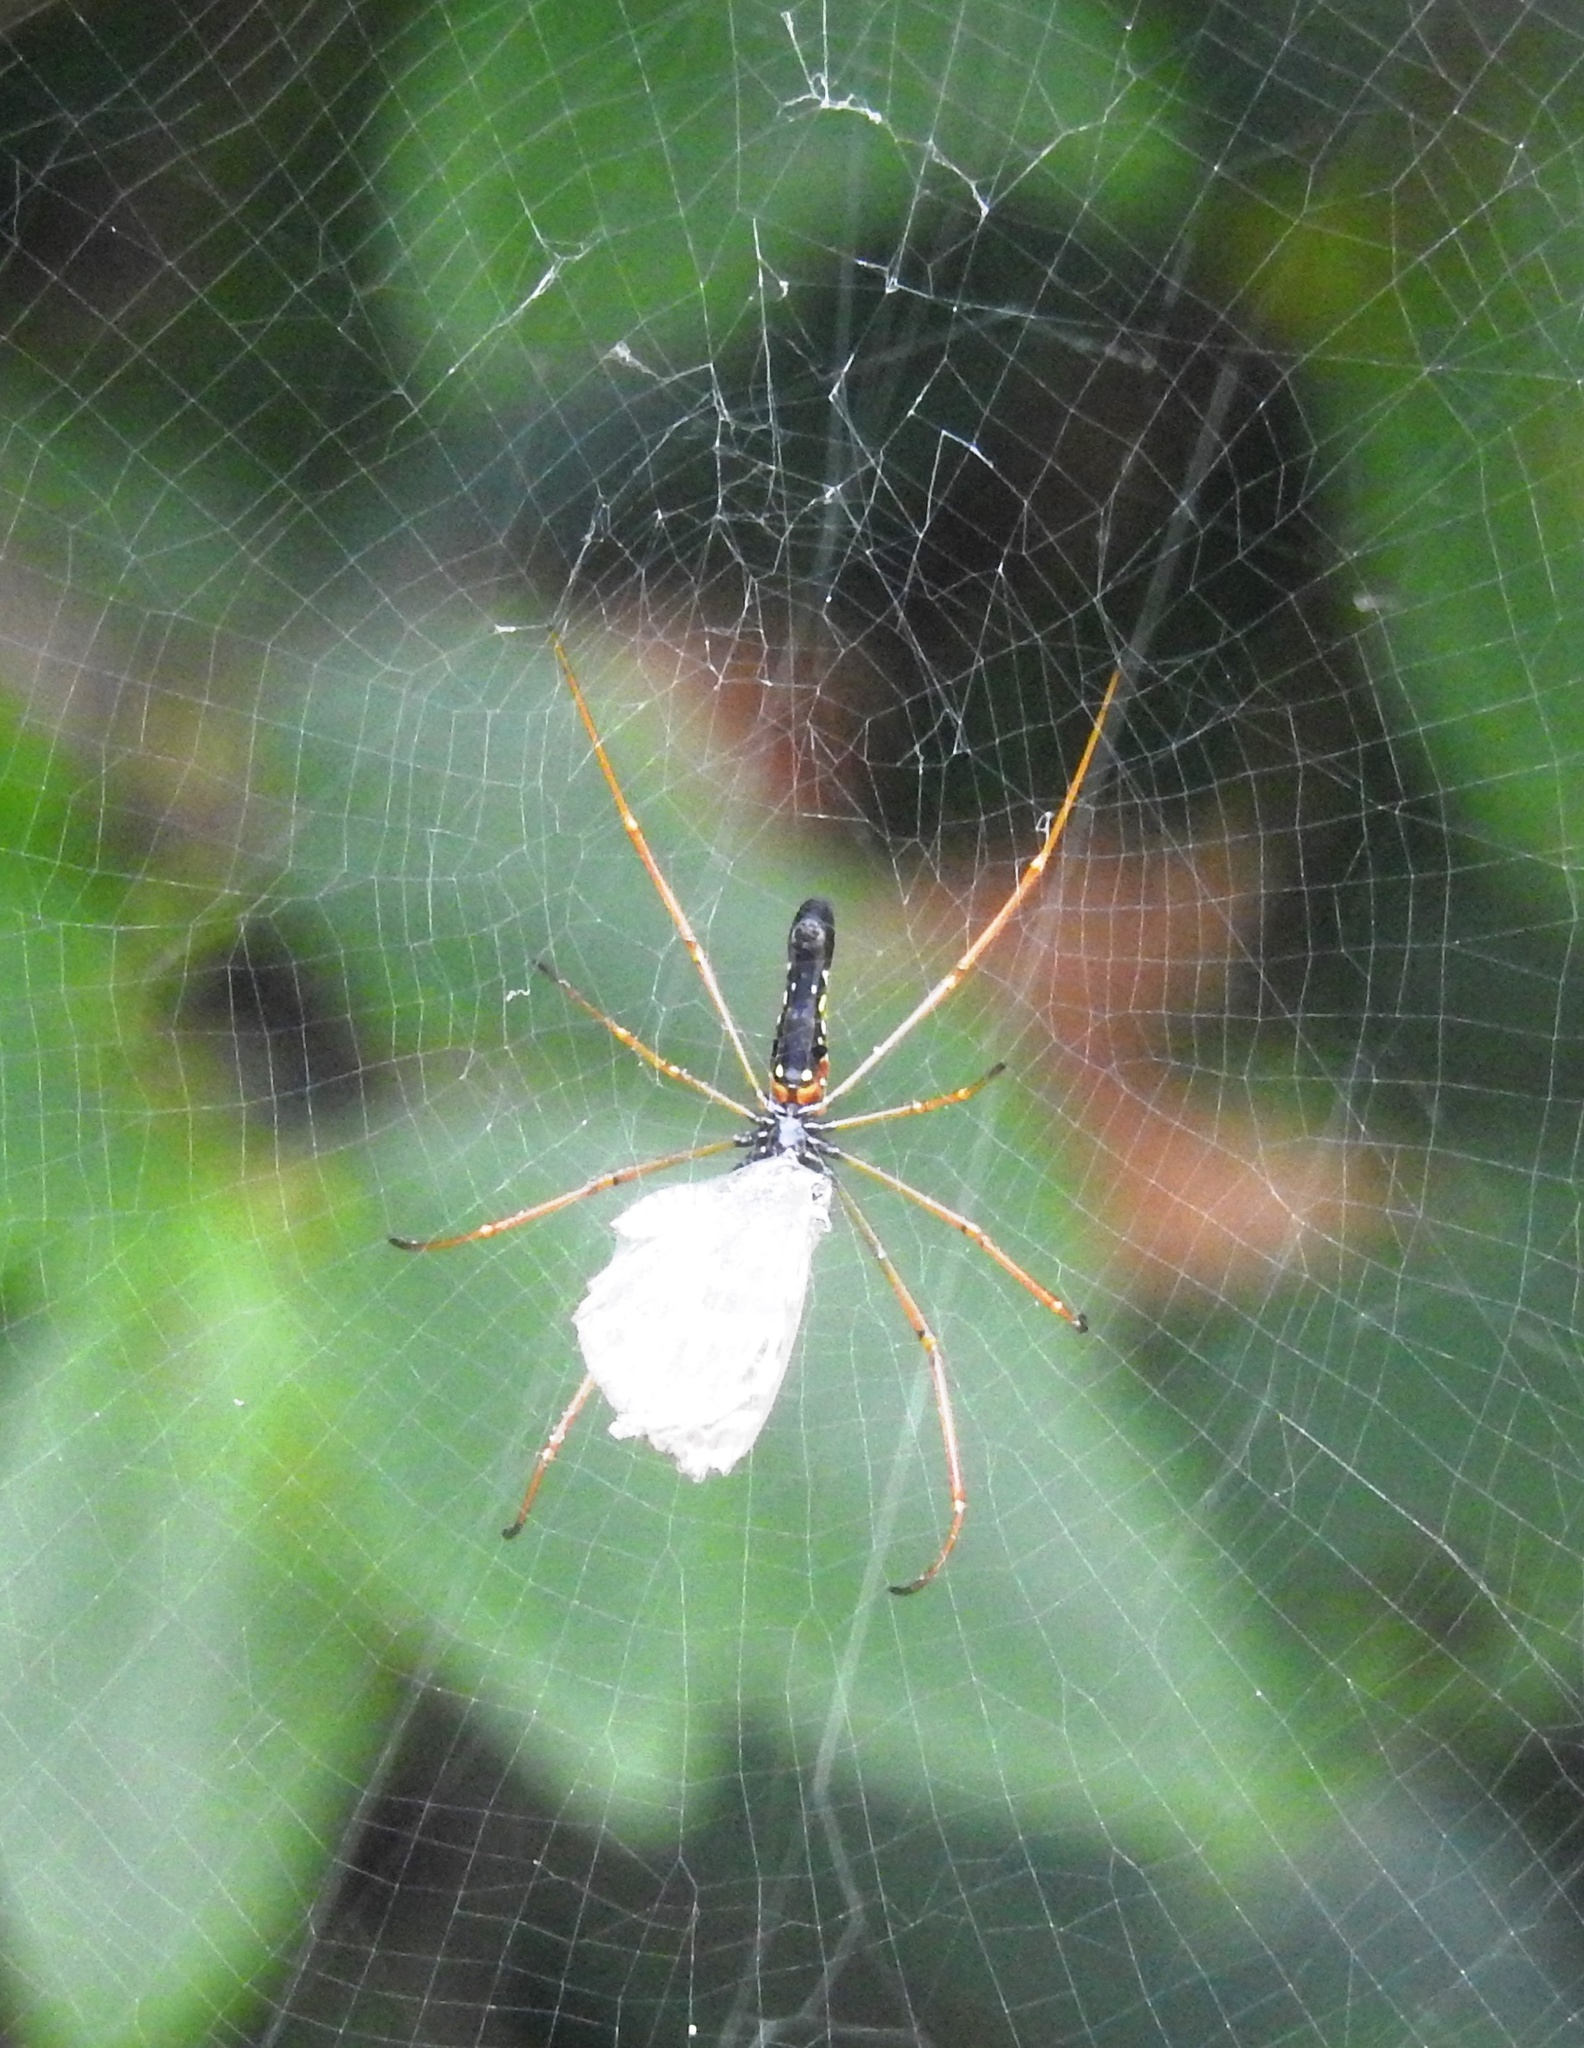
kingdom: Animalia
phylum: Arthropoda
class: Arachnida
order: Araneae
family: Araneidae
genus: Nephila
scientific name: Nephila kuhli
